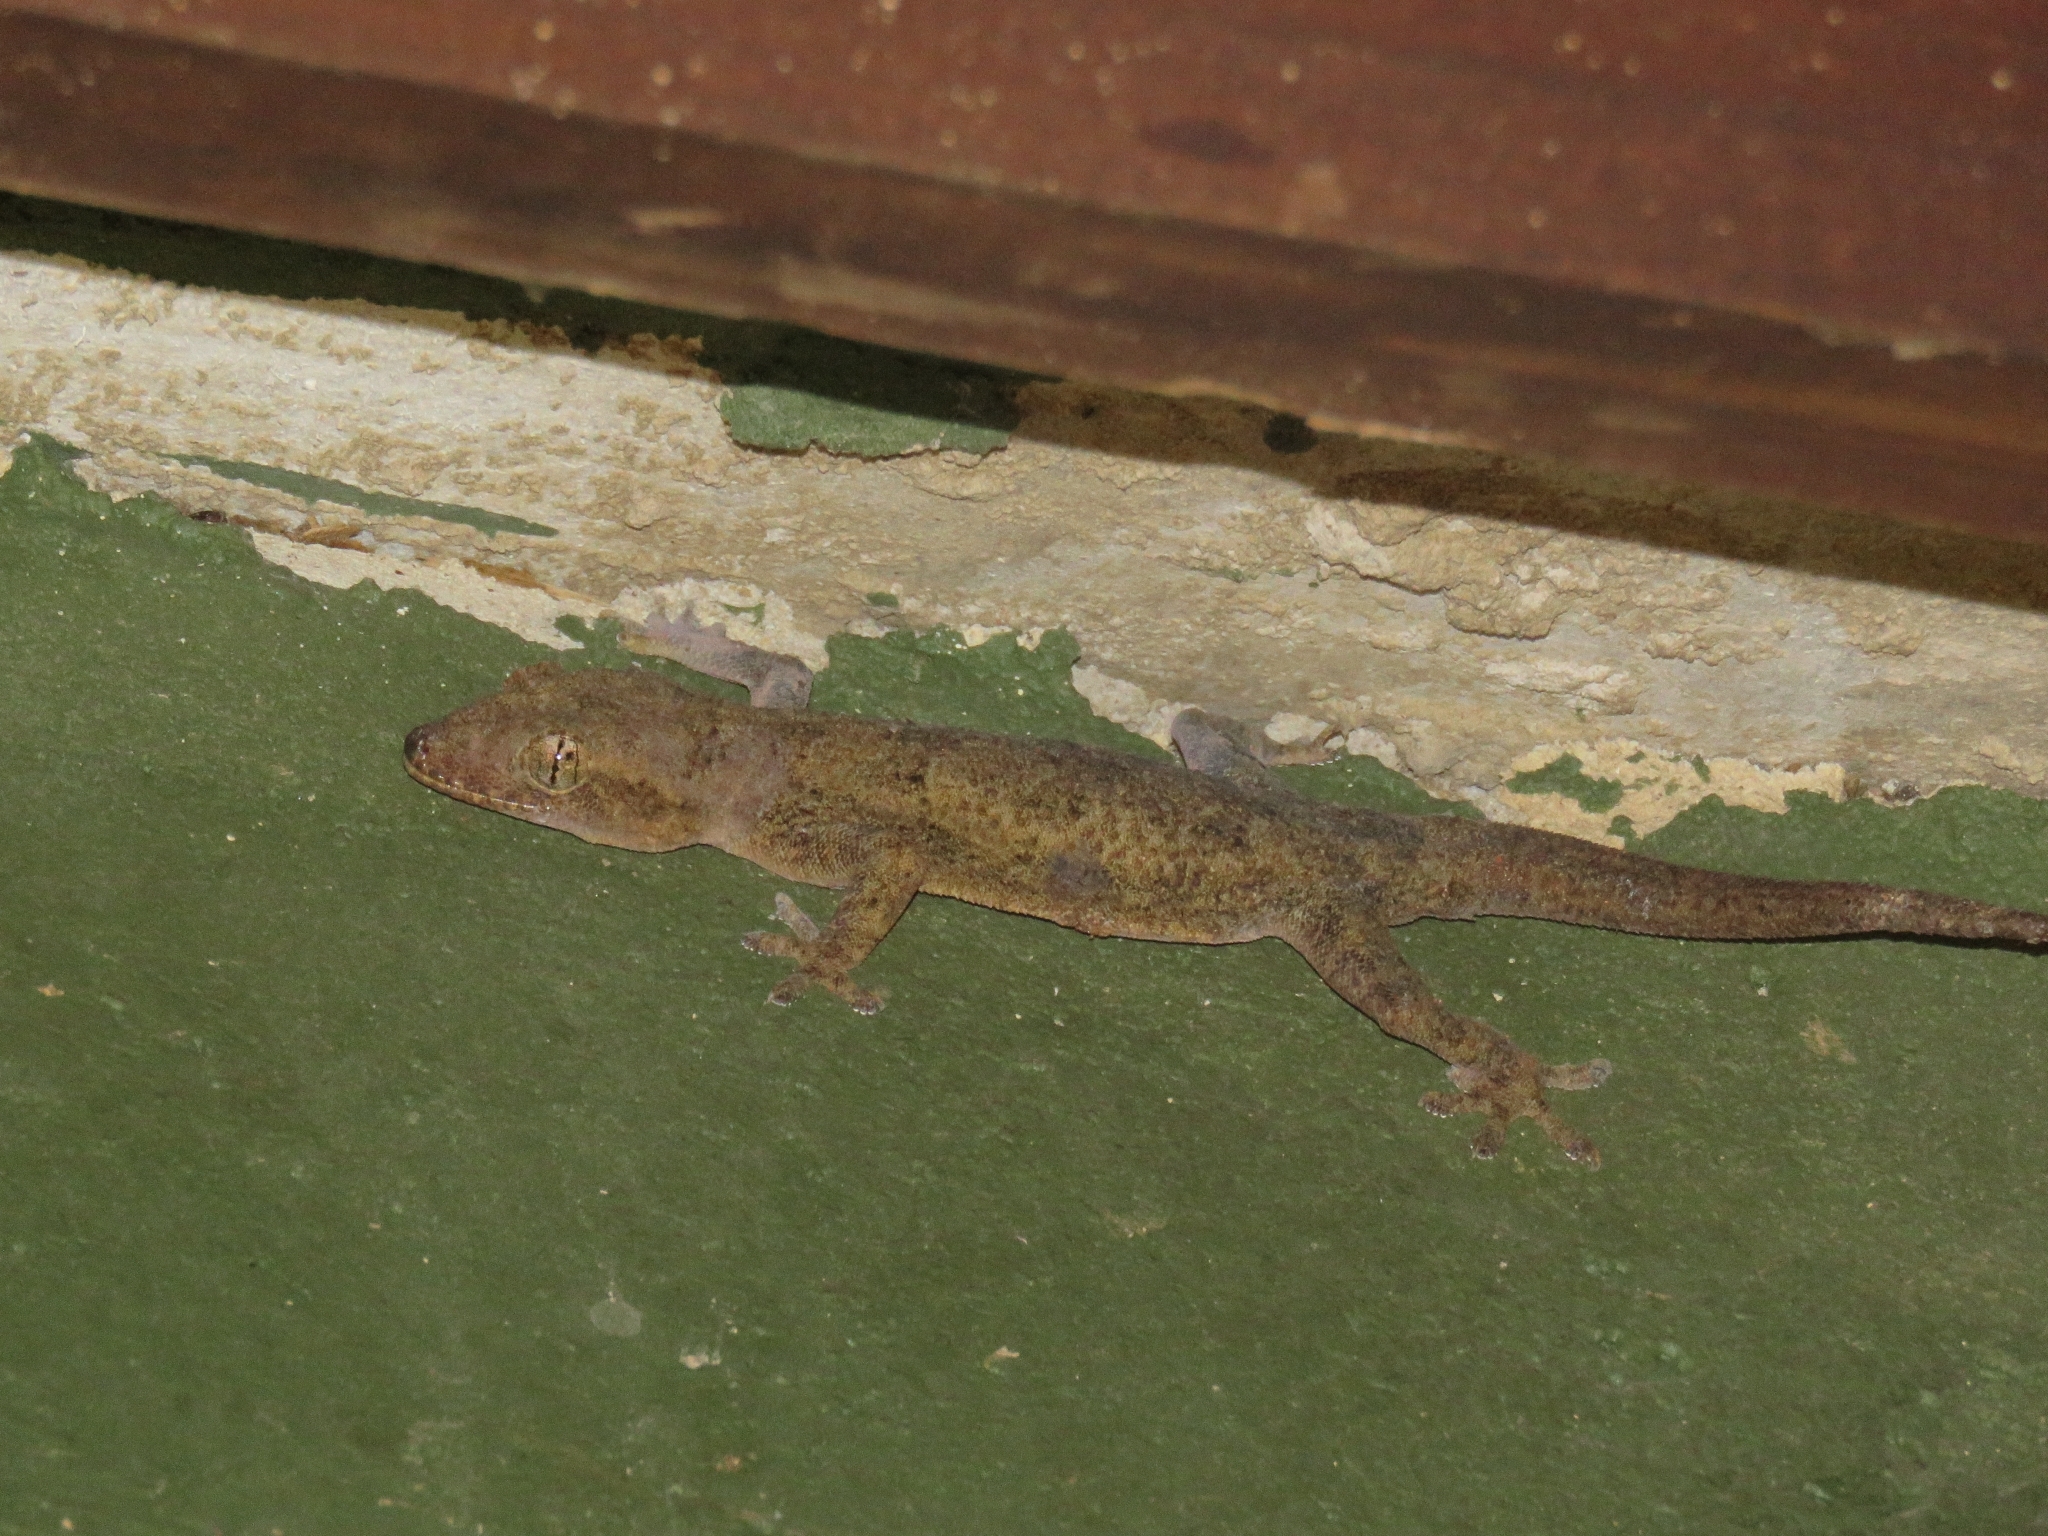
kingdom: Animalia
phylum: Chordata
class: Squamata
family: Gekkonidae
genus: Hemidactylus
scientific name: Hemidactylus mabouia
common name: House gecko
